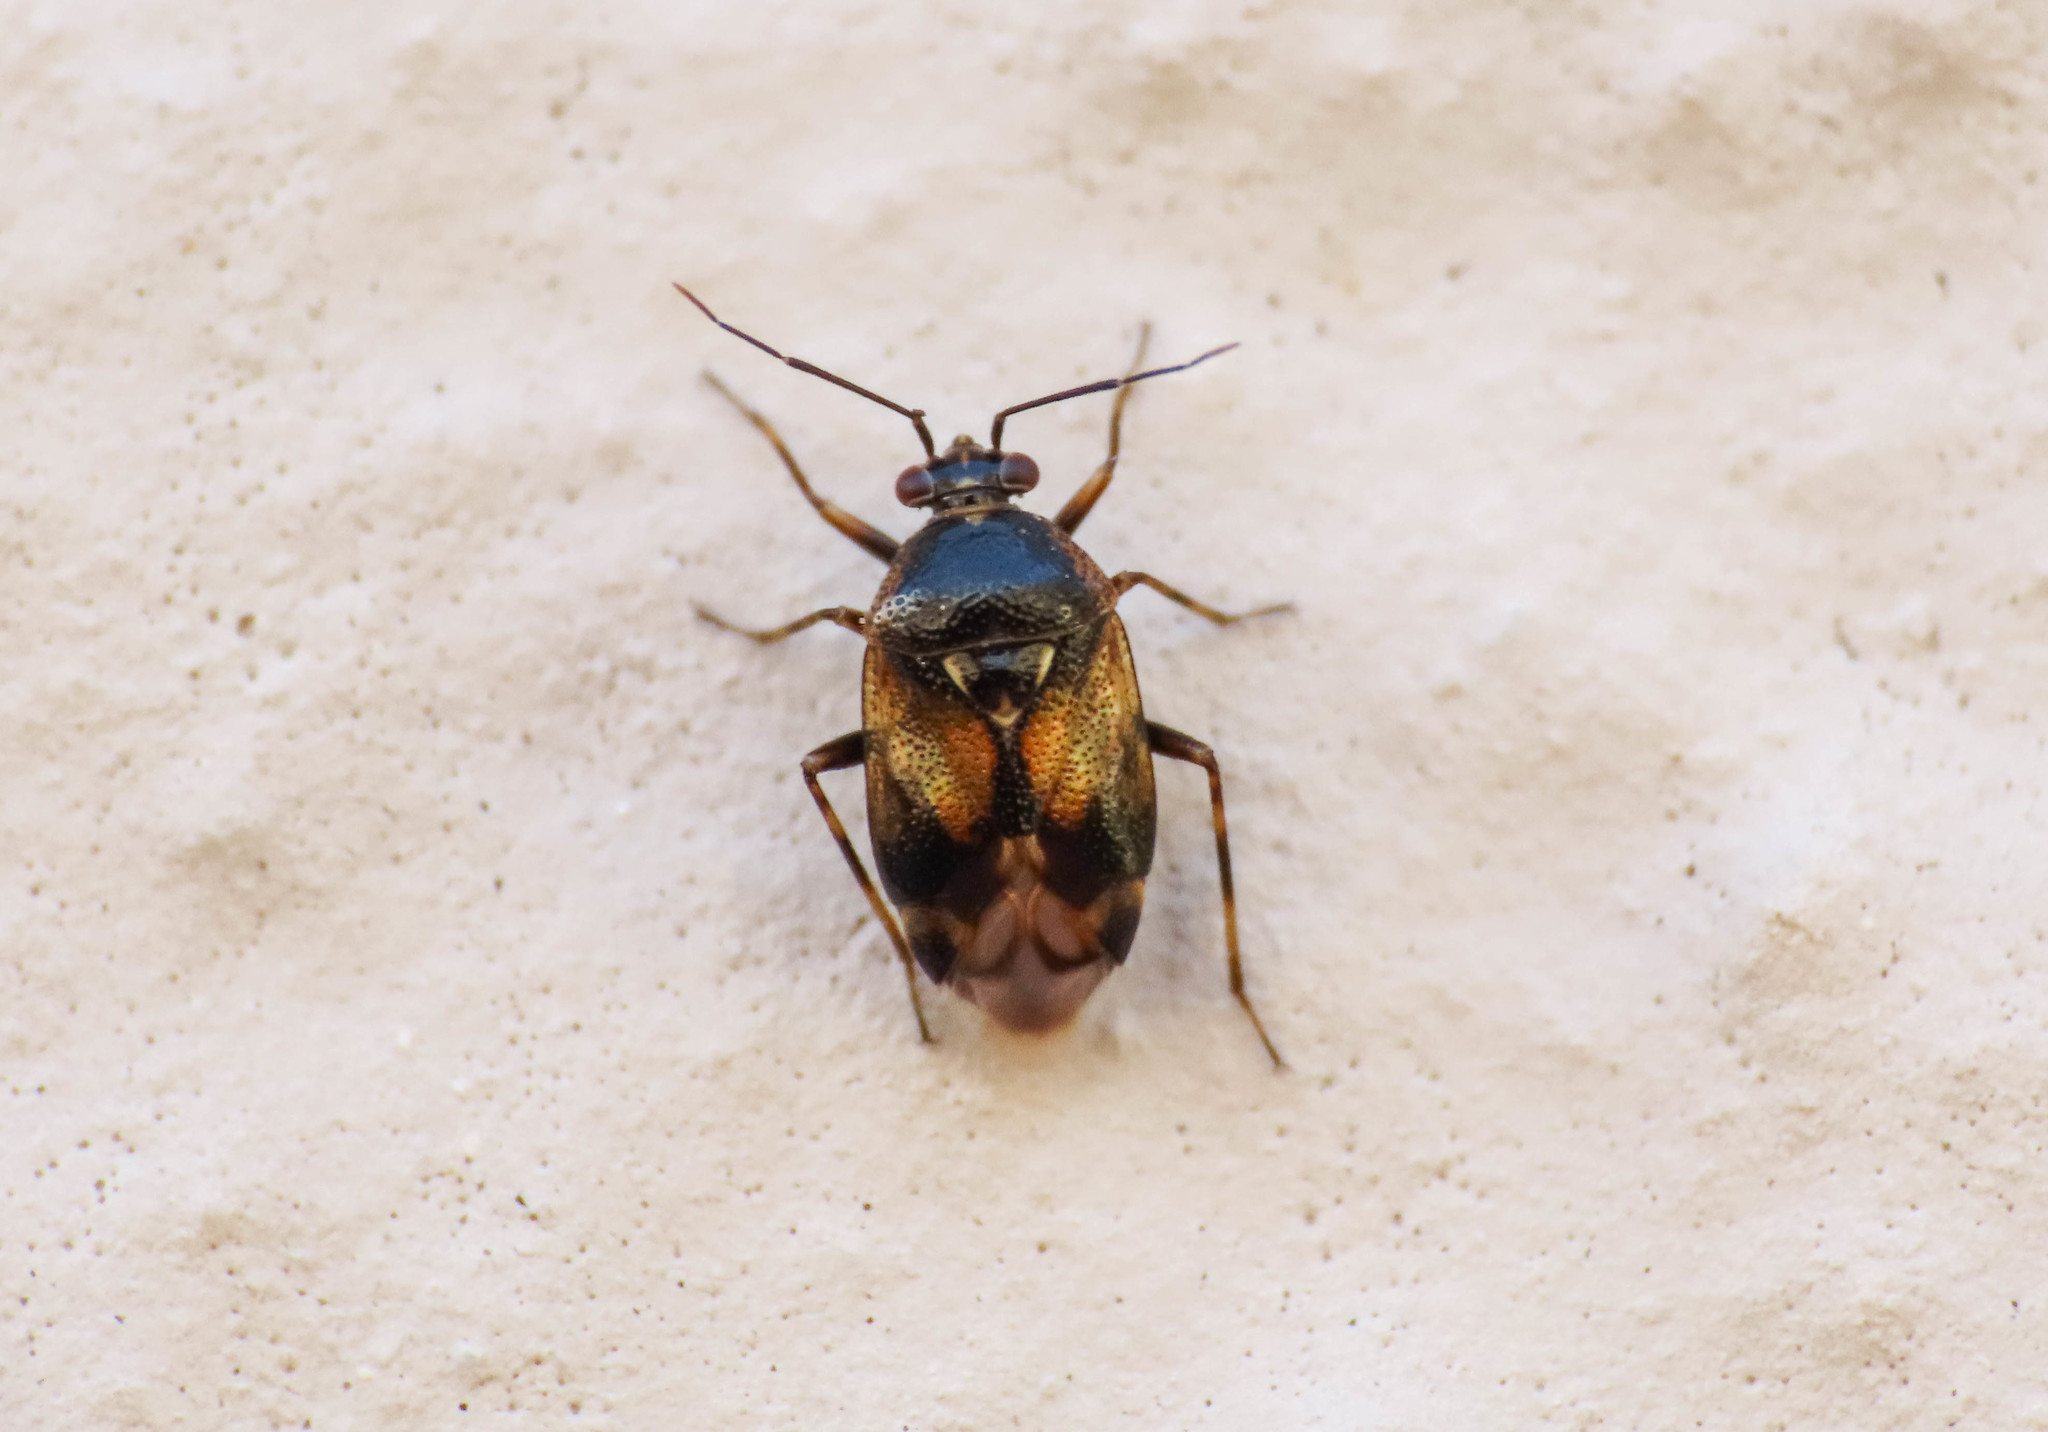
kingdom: Animalia
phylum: Arthropoda
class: Insecta
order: Hemiptera
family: Miridae
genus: Deraeocoris
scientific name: Deraeocoris serenus
